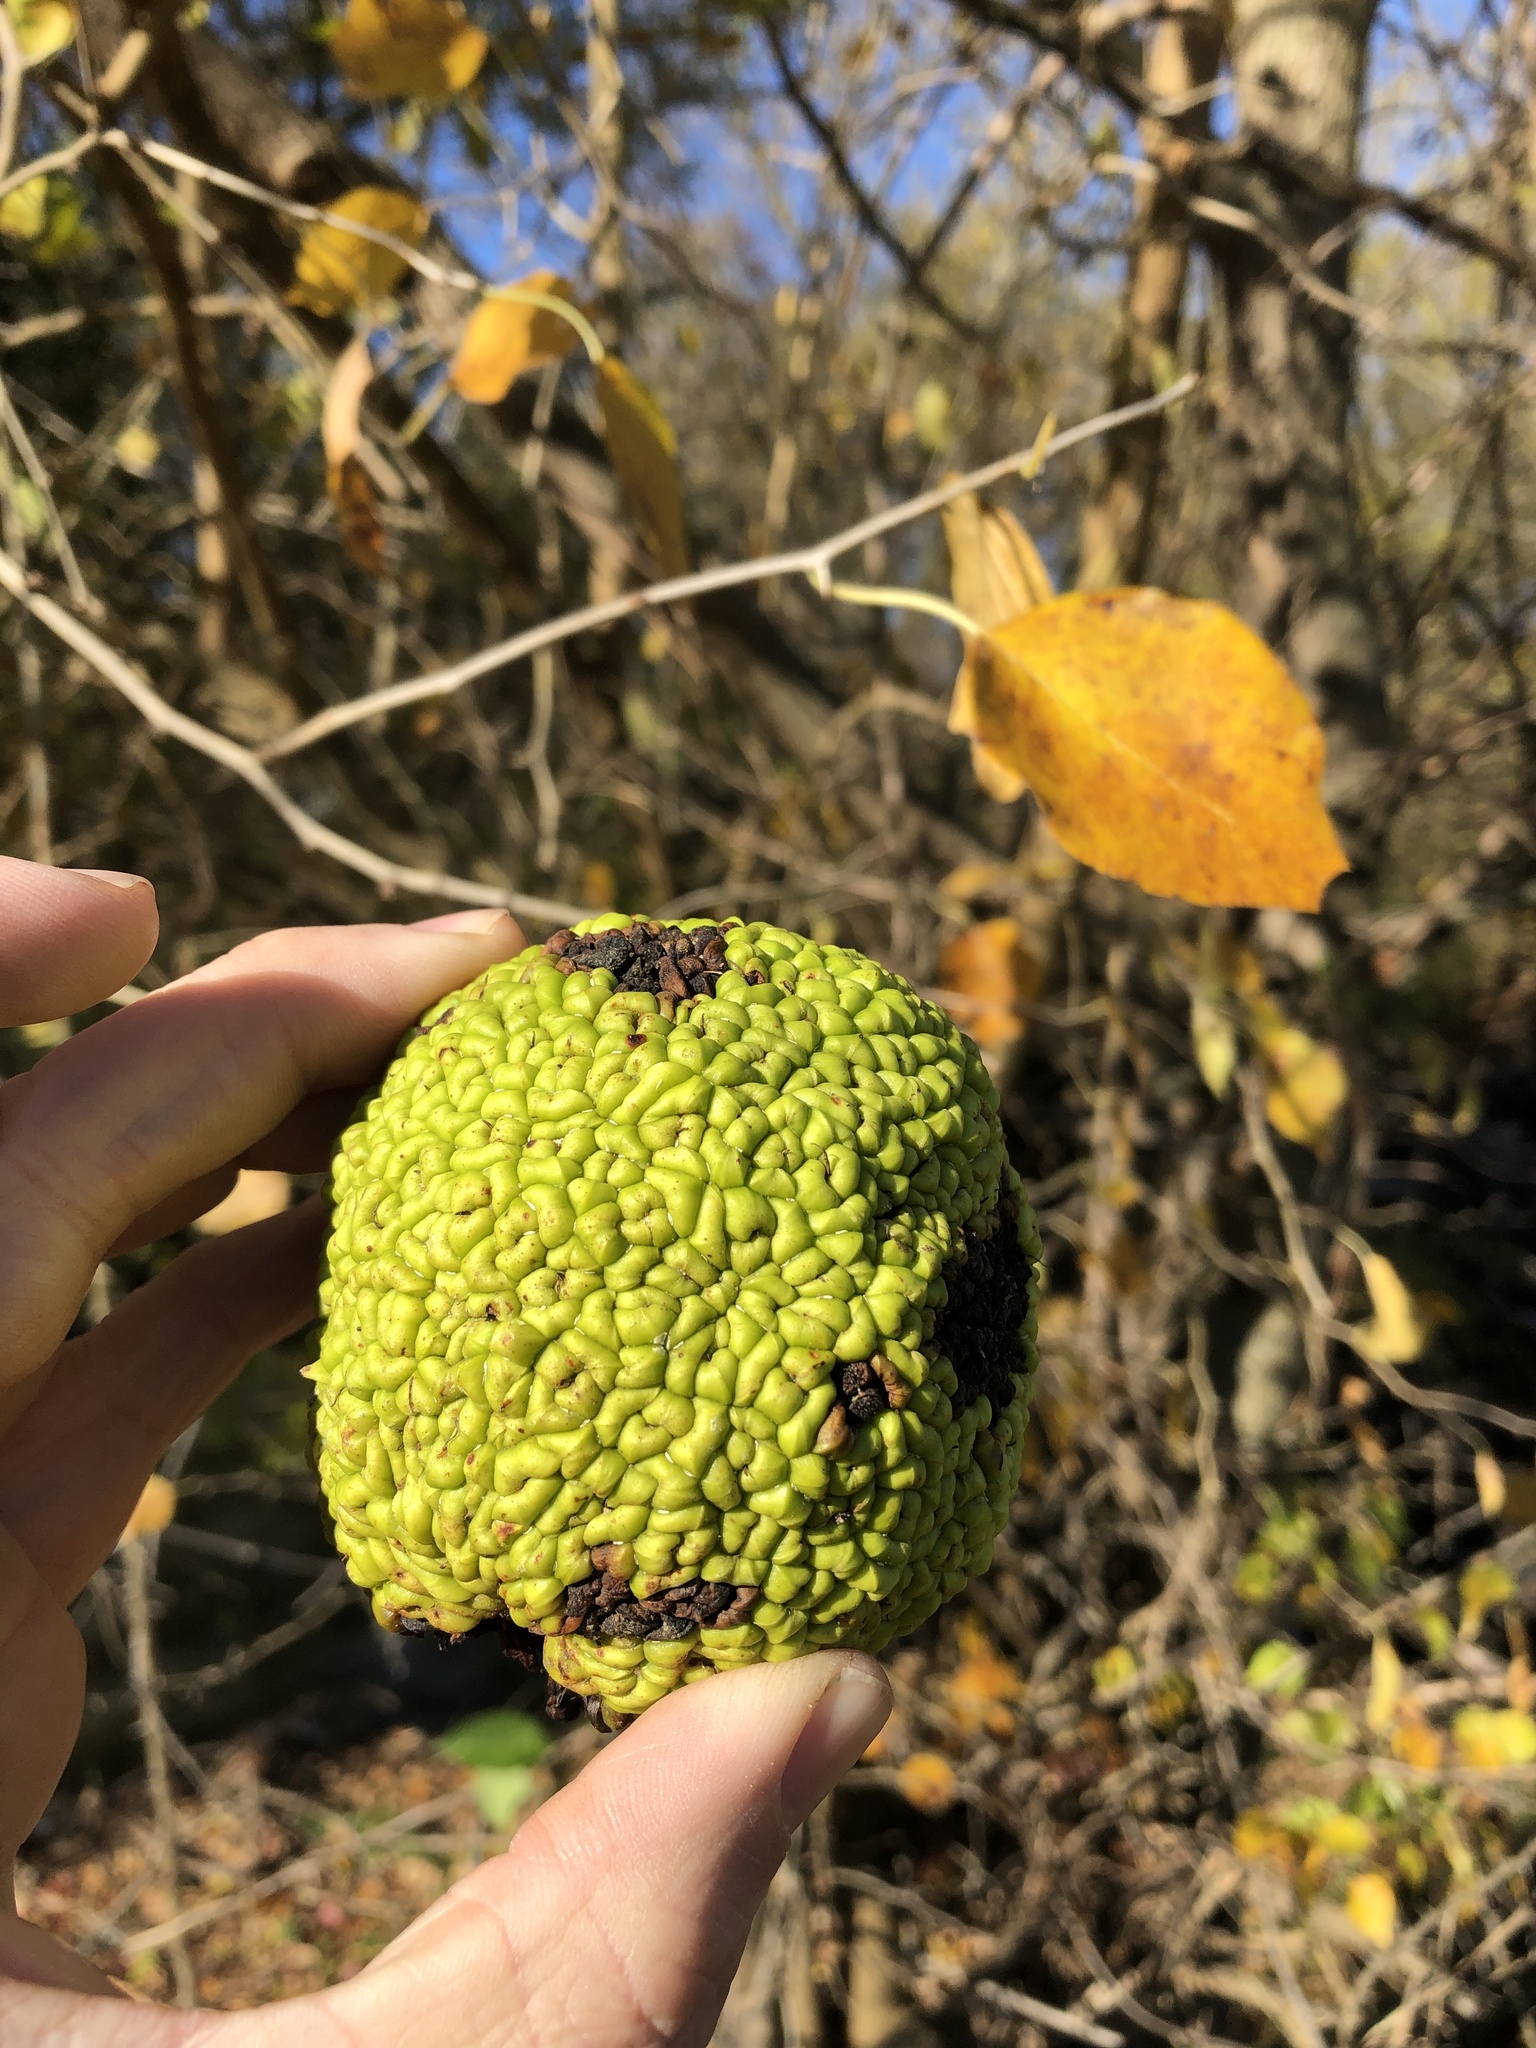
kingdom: Plantae
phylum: Tracheophyta
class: Magnoliopsida
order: Rosales
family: Moraceae
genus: Maclura
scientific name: Maclura pomifera
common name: Osage-orange
